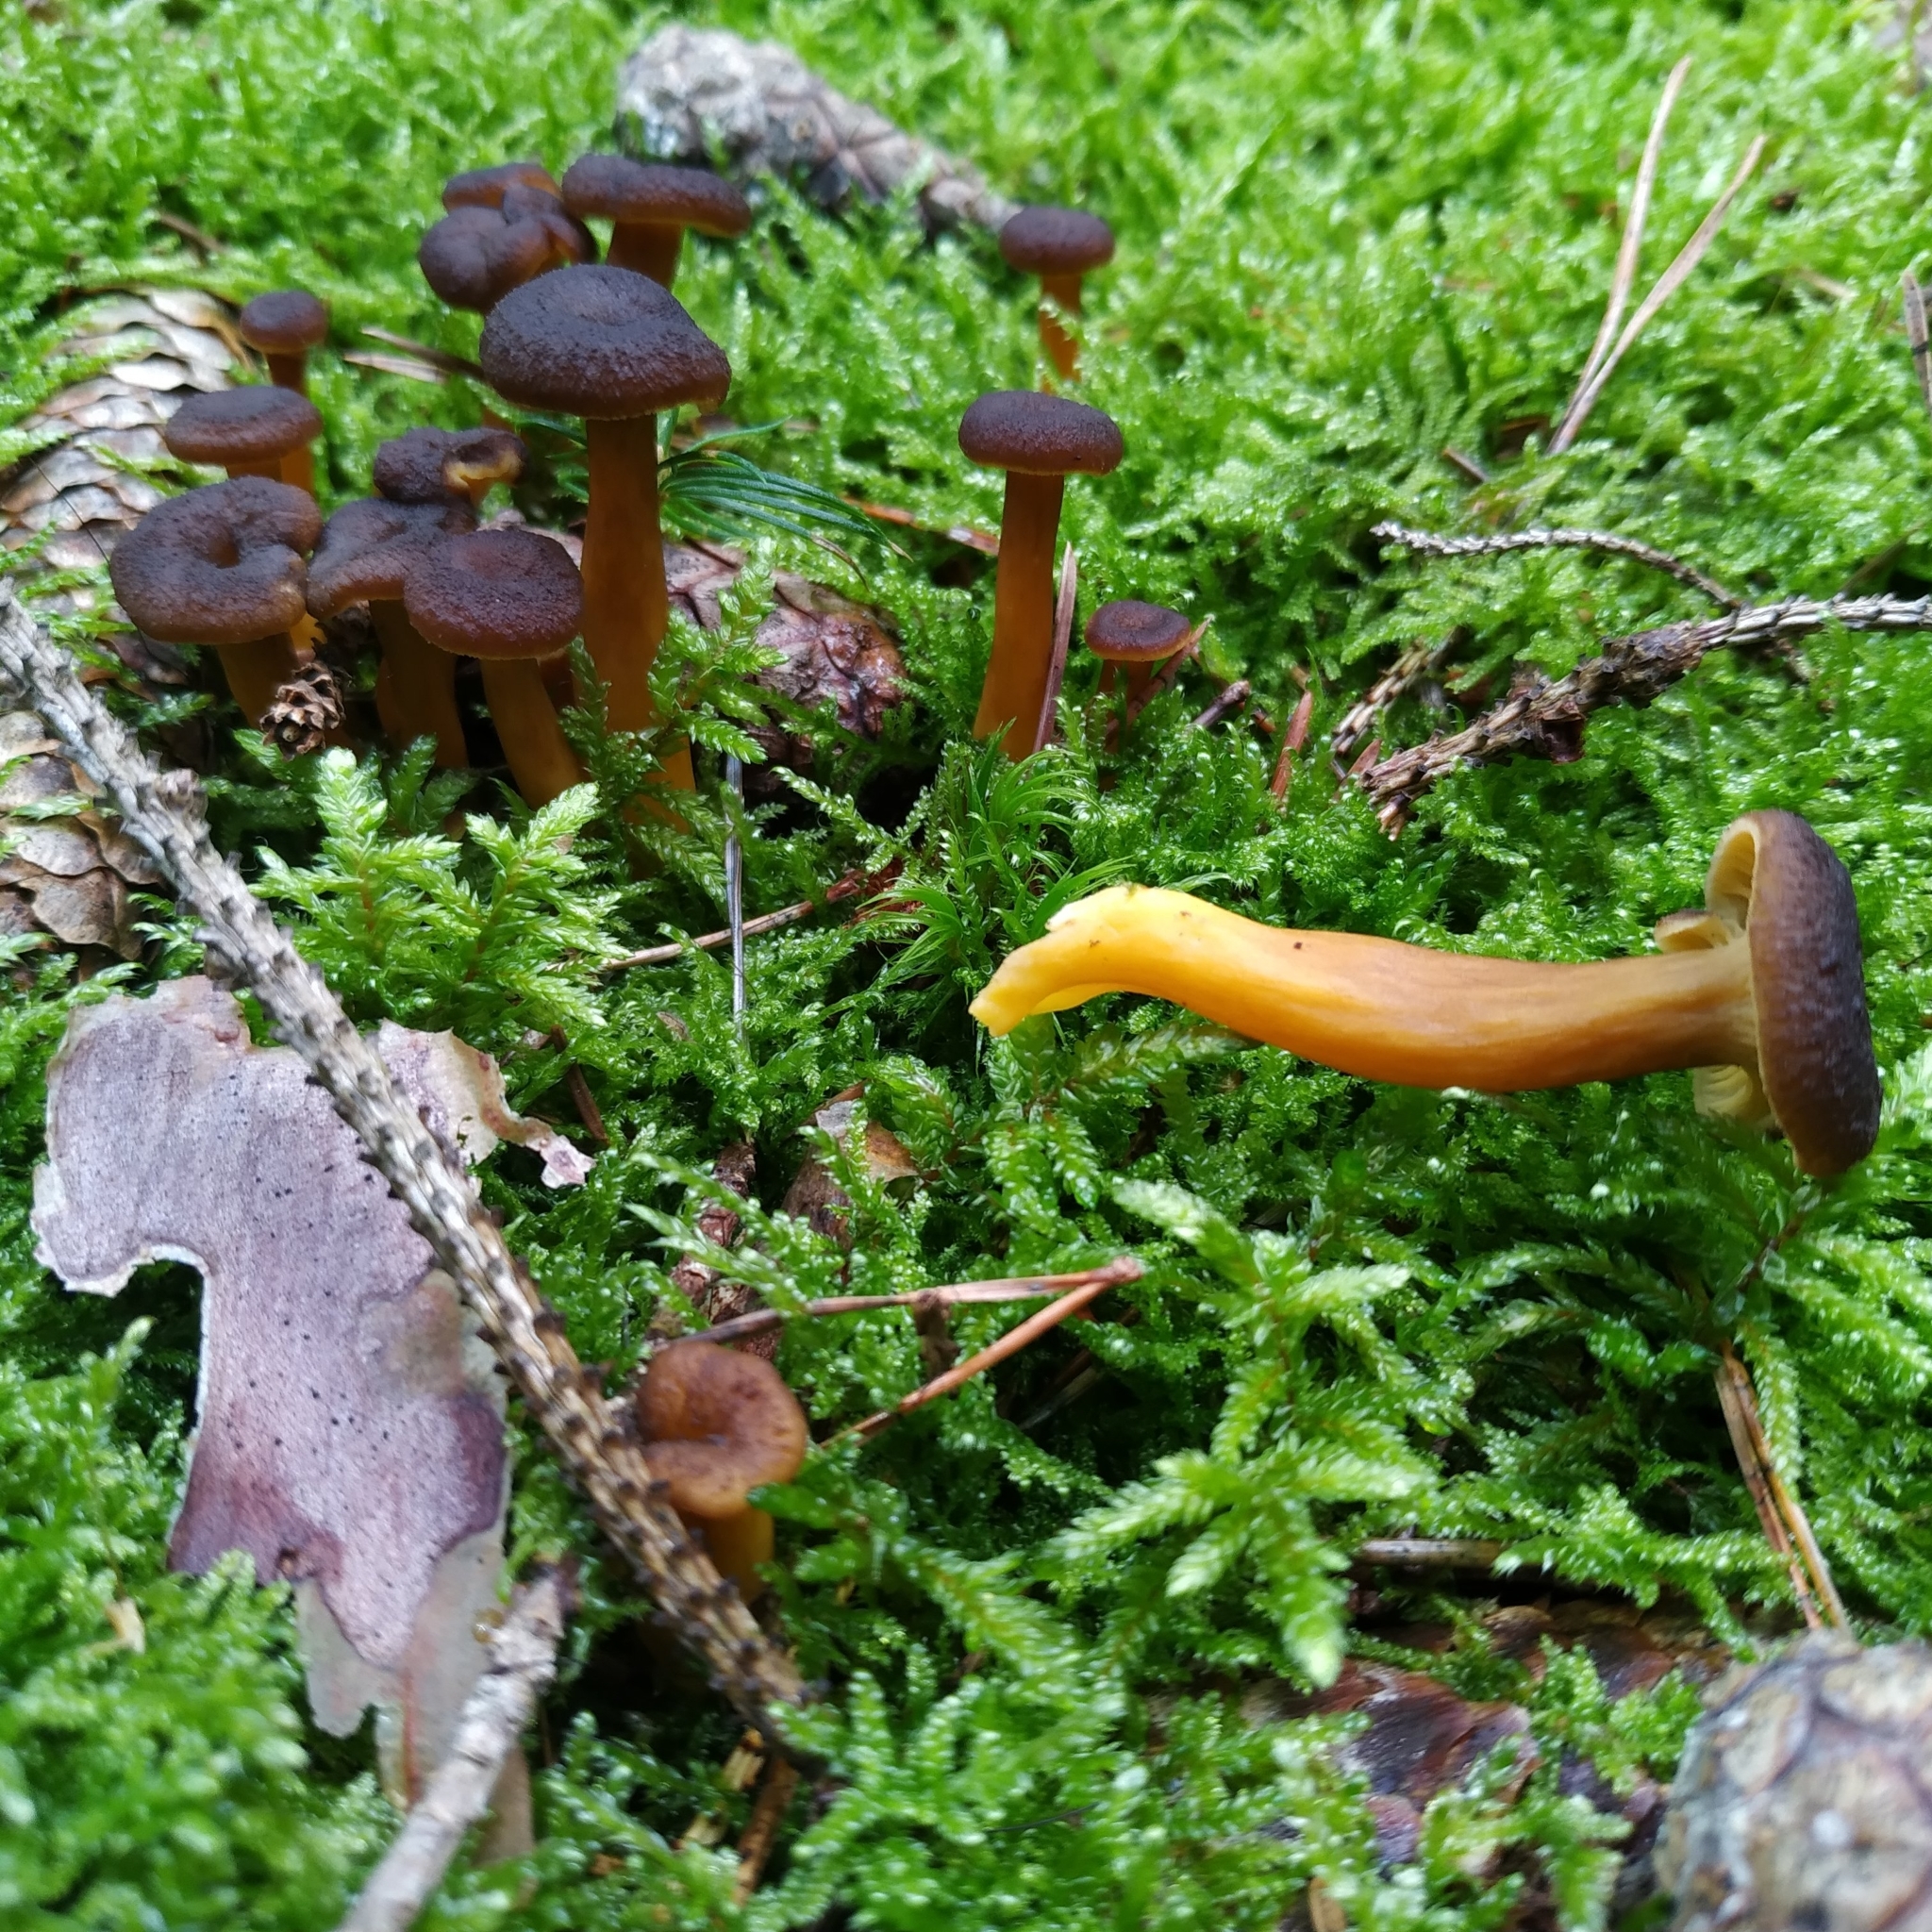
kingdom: Fungi
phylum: Basidiomycota
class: Agaricomycetes
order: Cantharellales
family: Hydnaceae
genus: Craterellus
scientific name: Craterellus tubaeformis
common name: Yellowfoot
